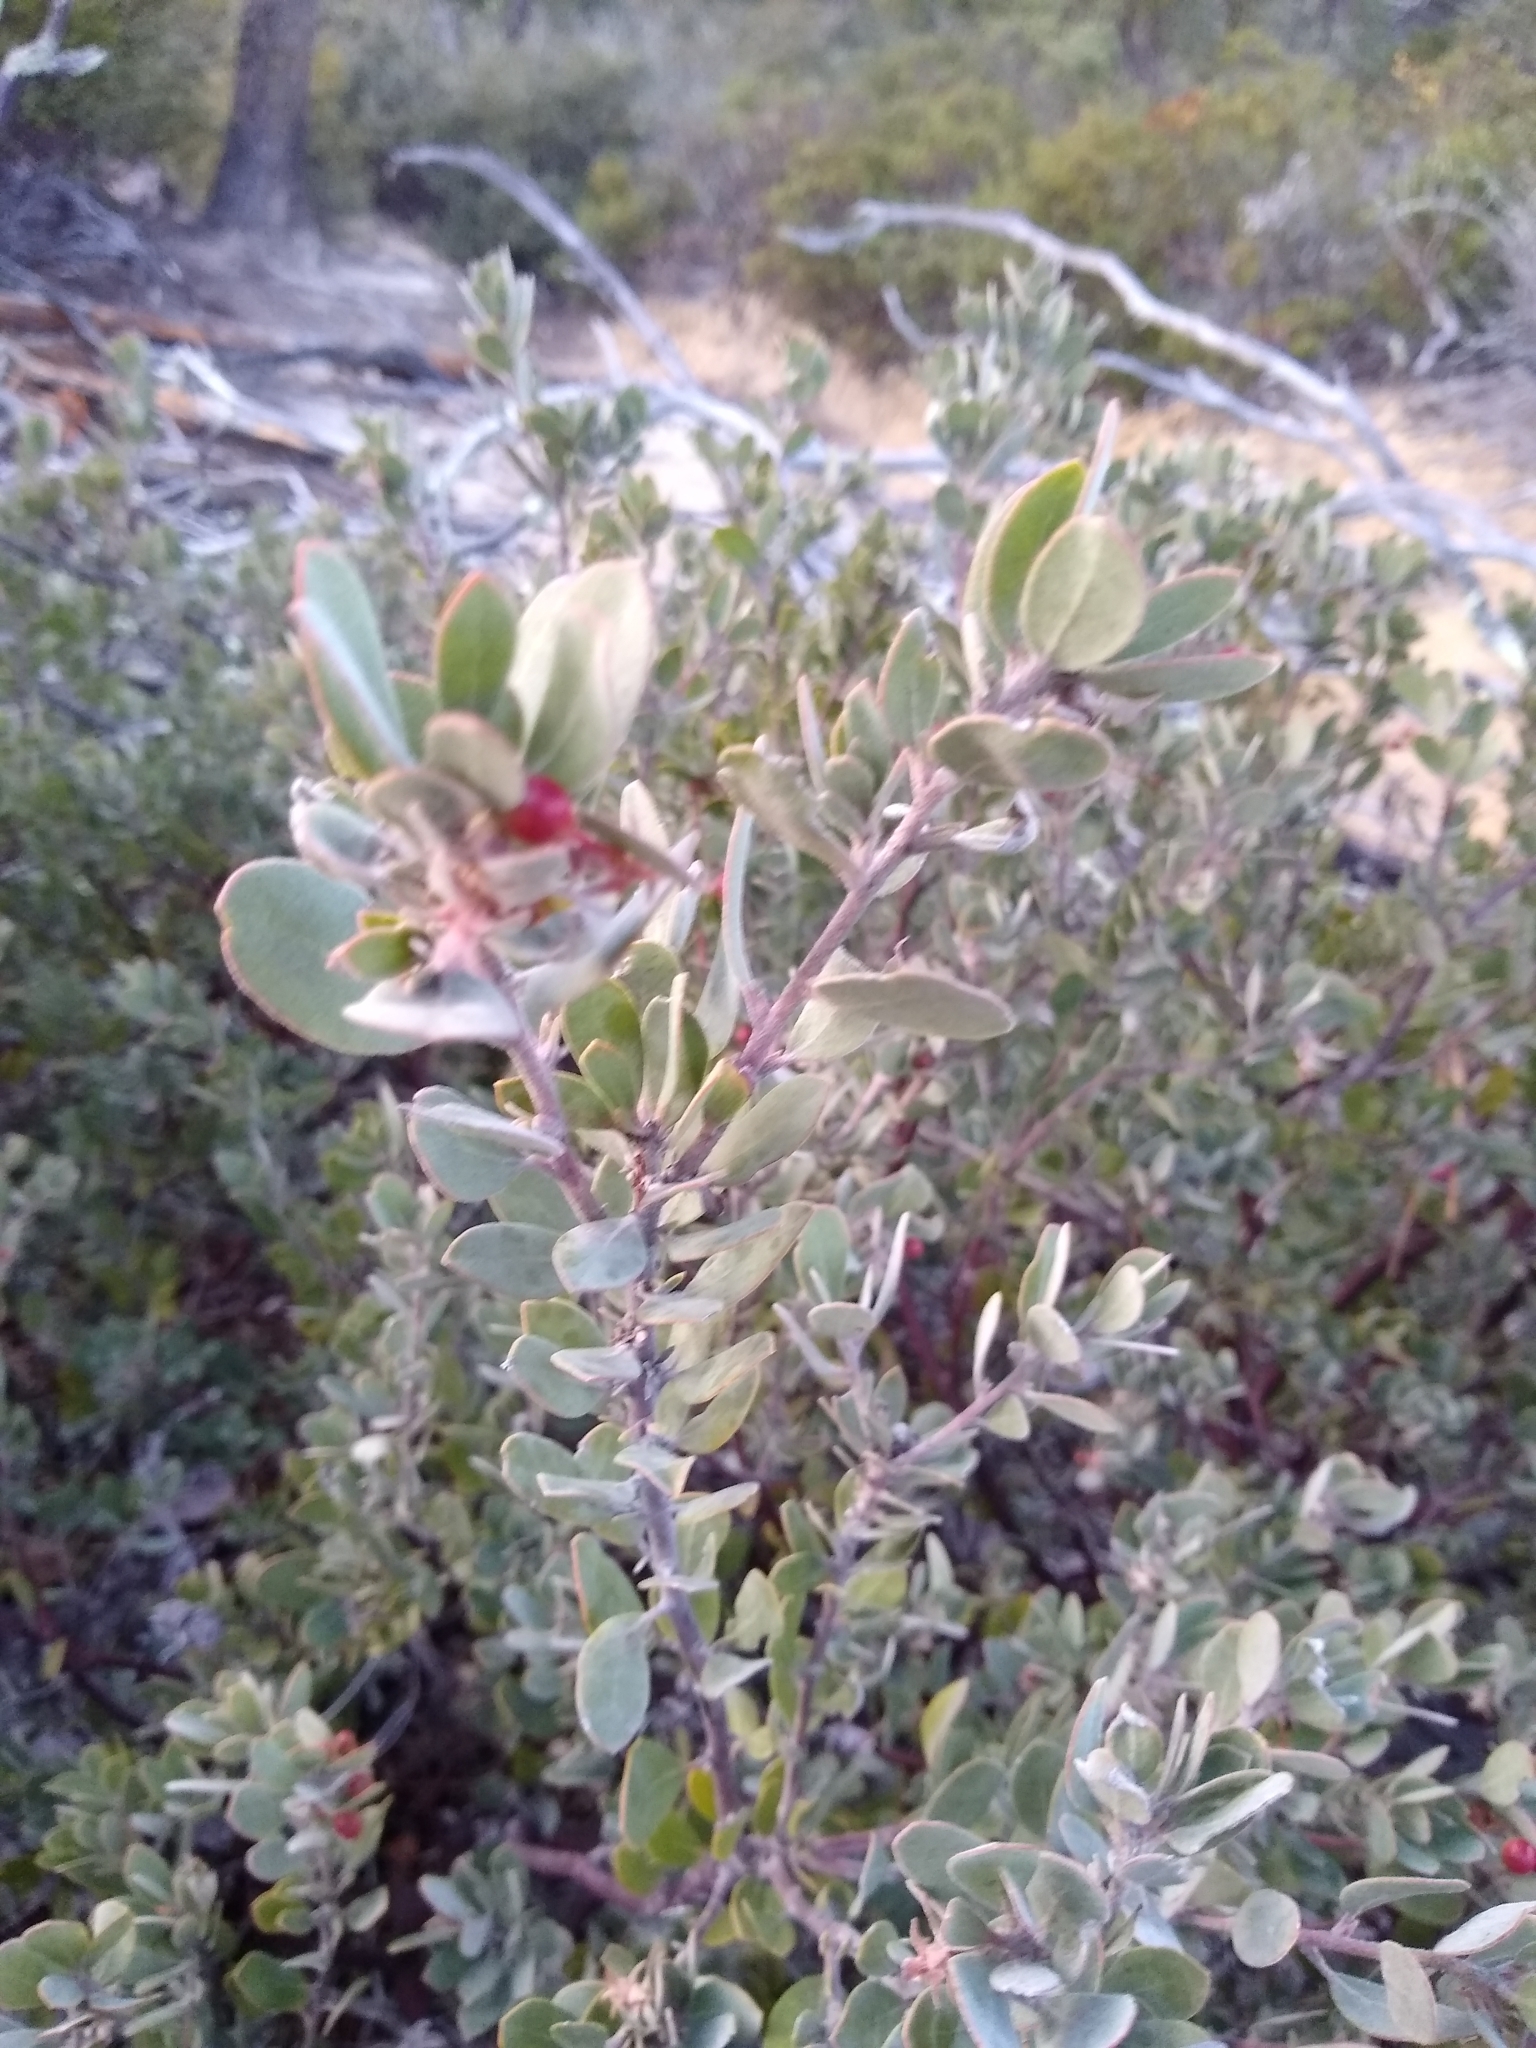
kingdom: Plantae
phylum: Tracheophyta
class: Magnoliopsida
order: Ericales
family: Ericaceae
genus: Arctostaphylos
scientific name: Arctostaphylos silvicola
